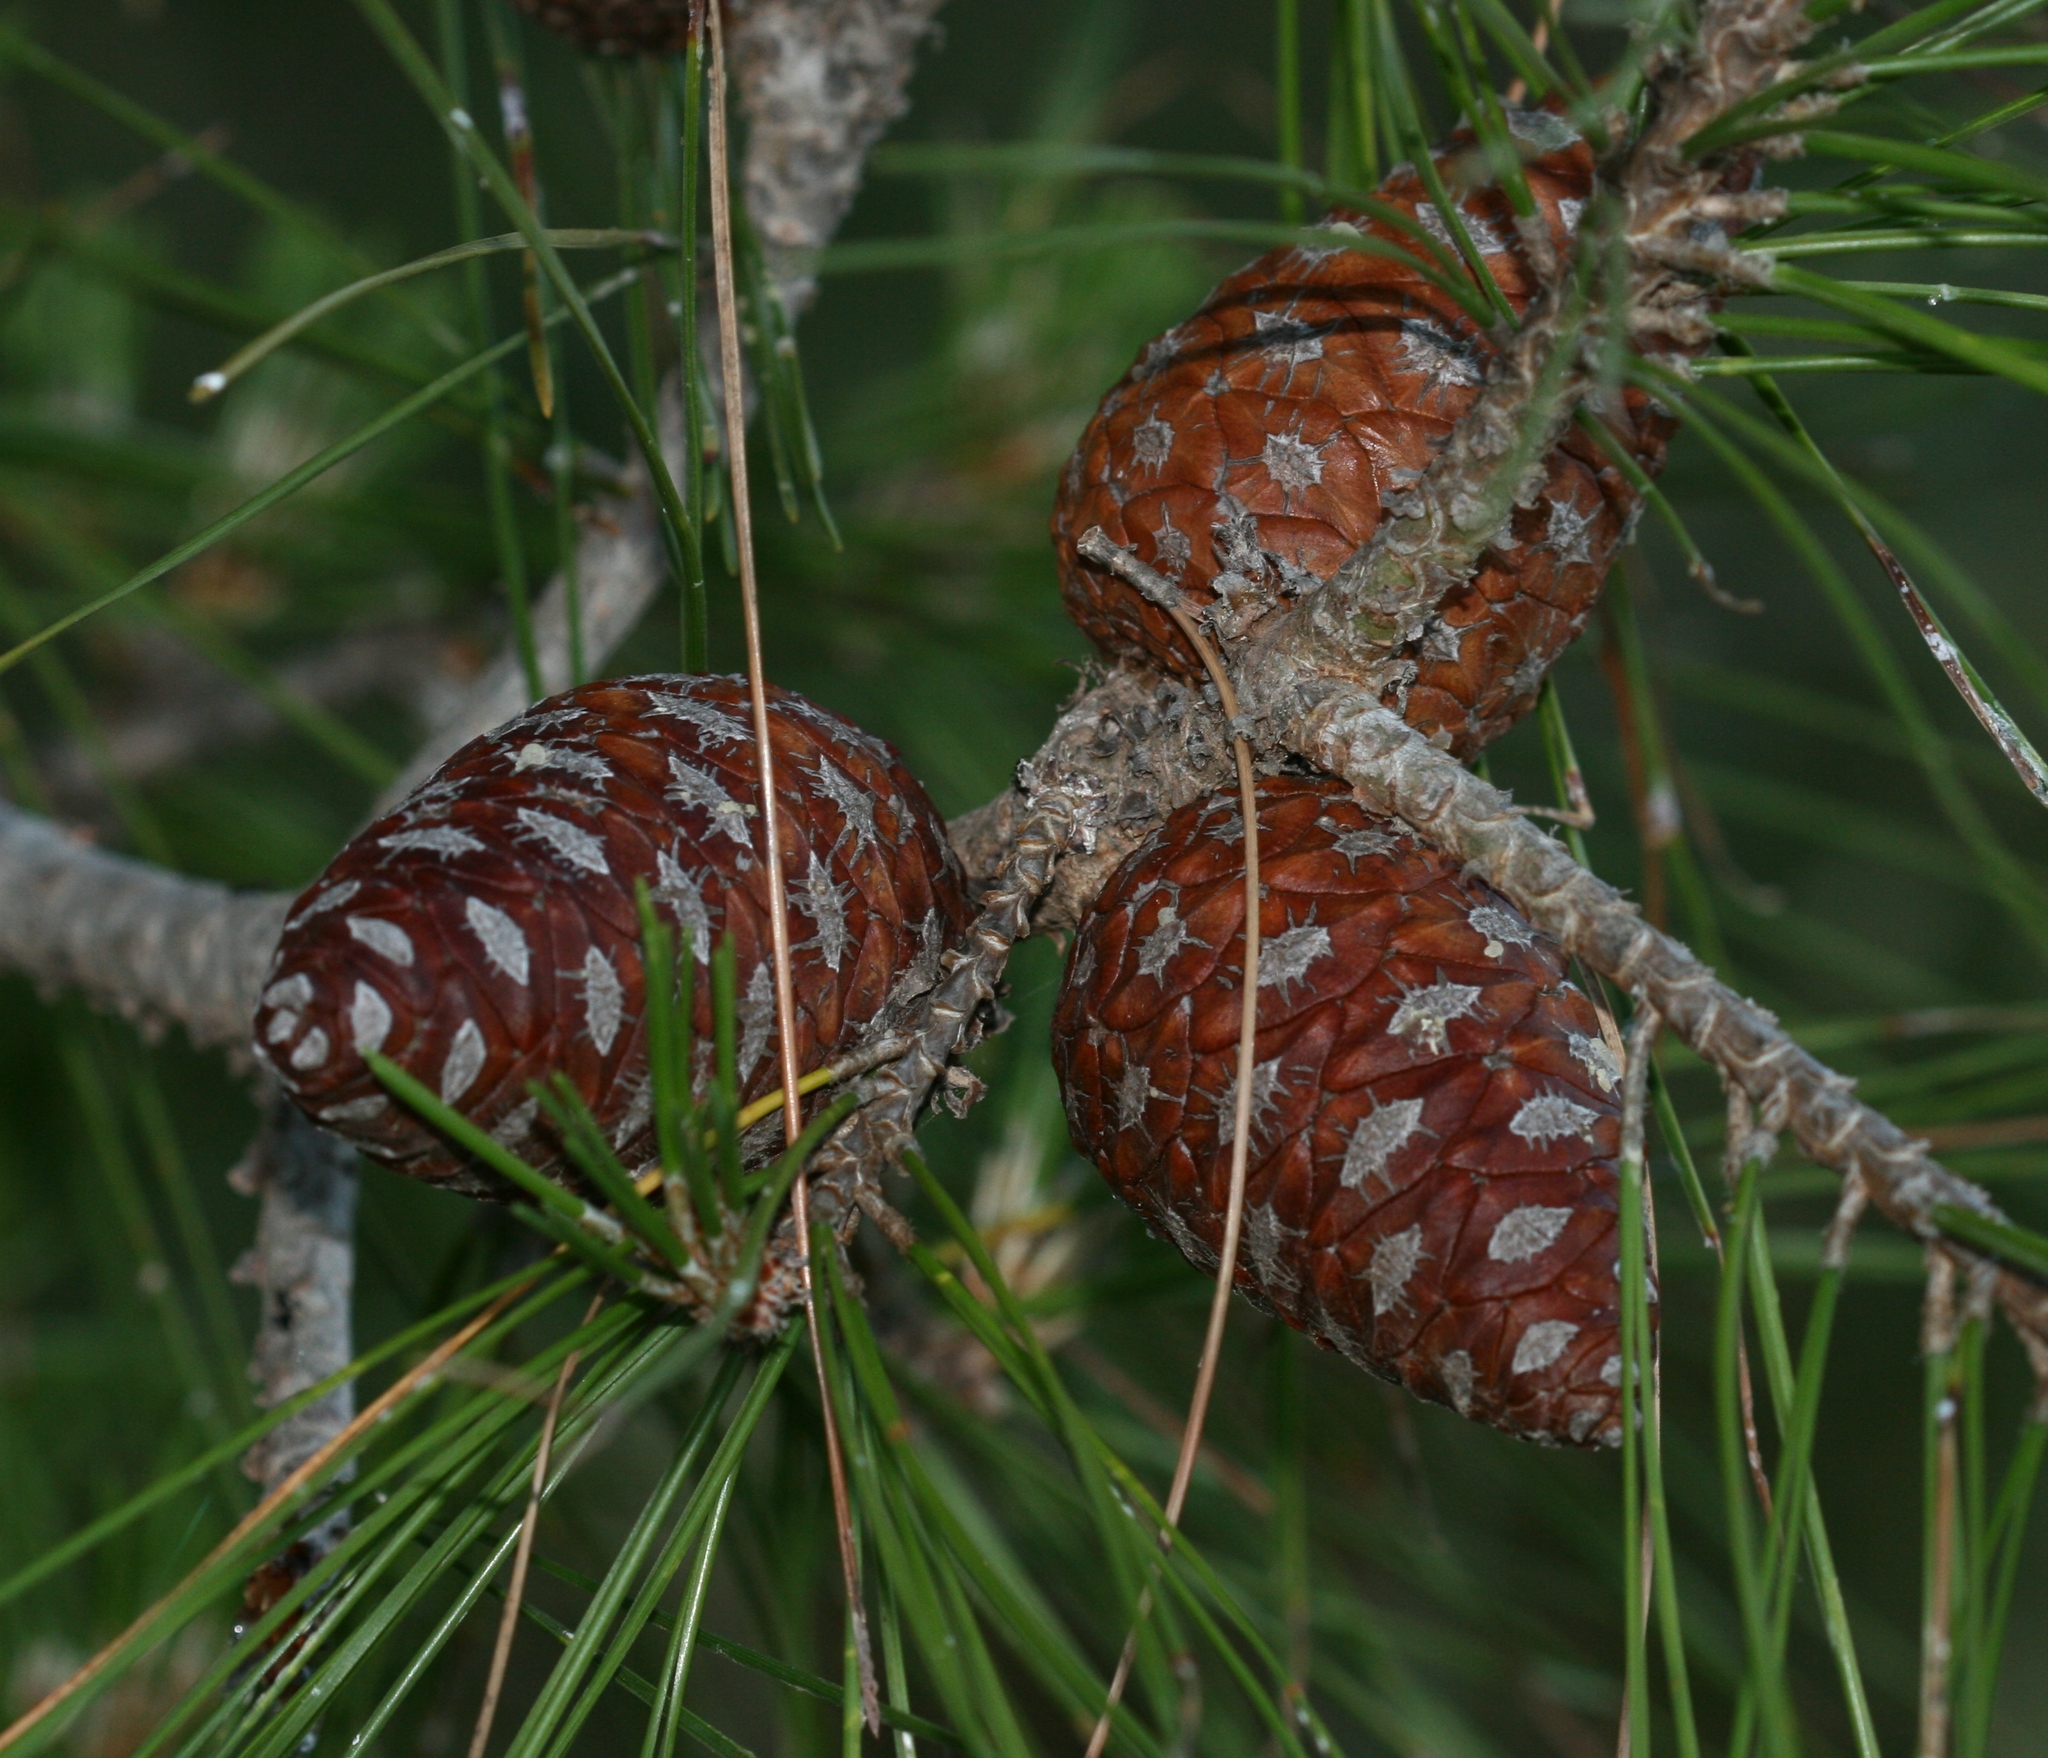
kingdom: Plantae
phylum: Tracheophyta
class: Pinopsida
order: Pinales
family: Pinaceae
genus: Pinus
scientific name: Pinus brutia
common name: Turkish pine
